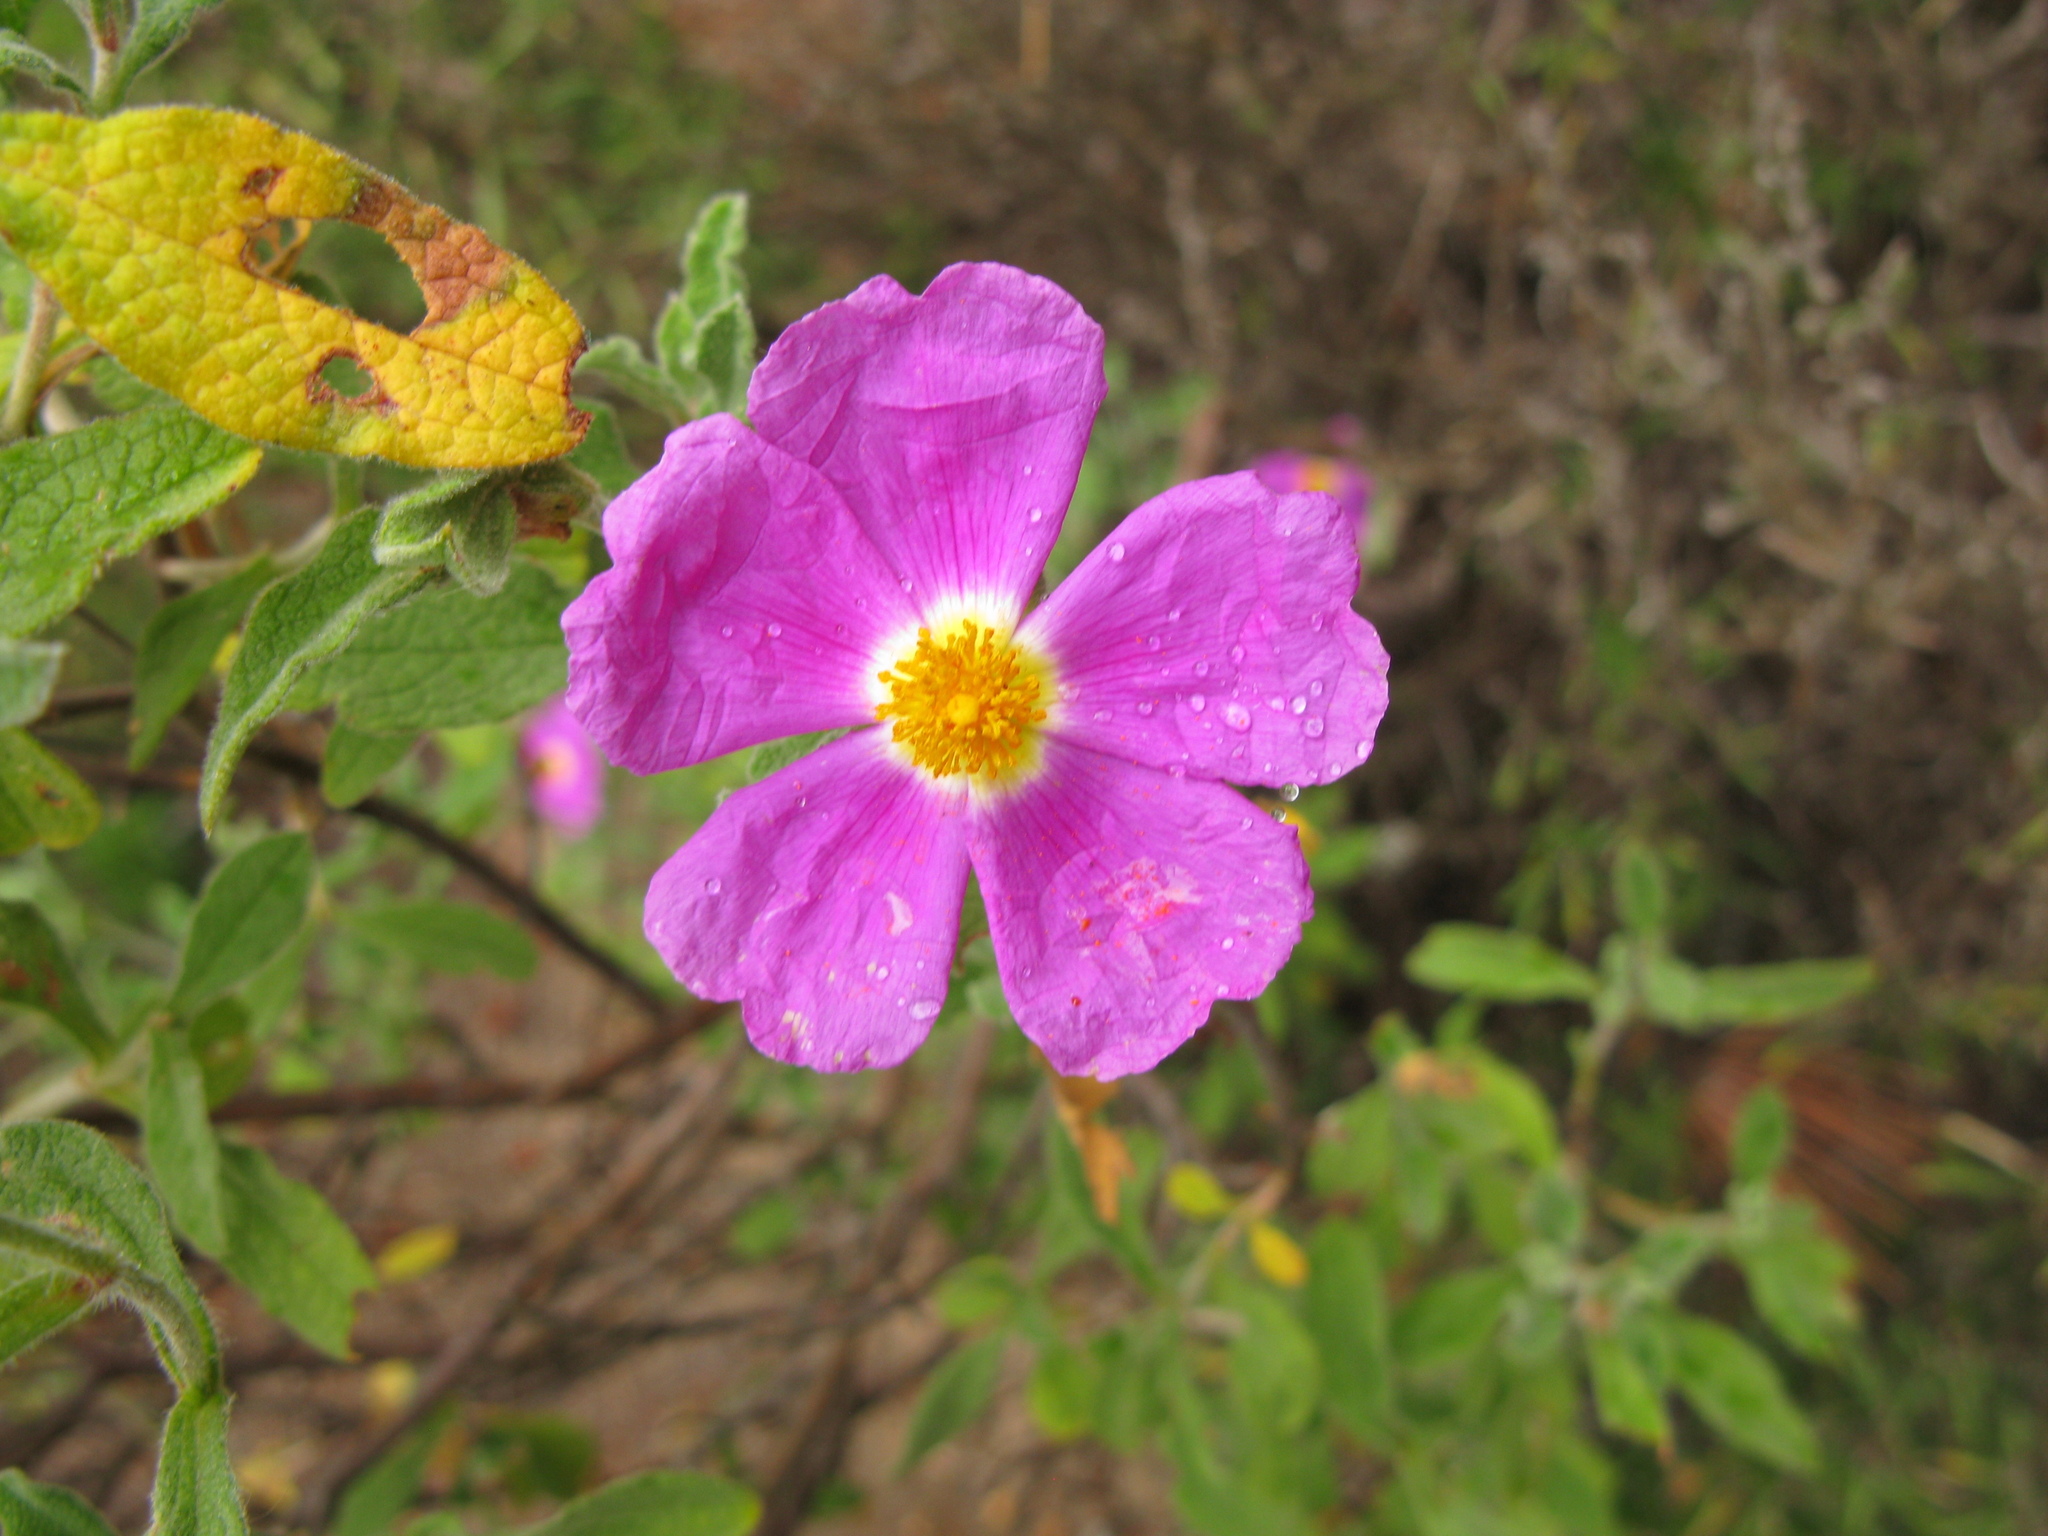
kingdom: Plantae
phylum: Tracheophyta
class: Magnoliopsida
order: Malvales
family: Cistaceae
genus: Cistus
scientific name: Cistus tauricus
